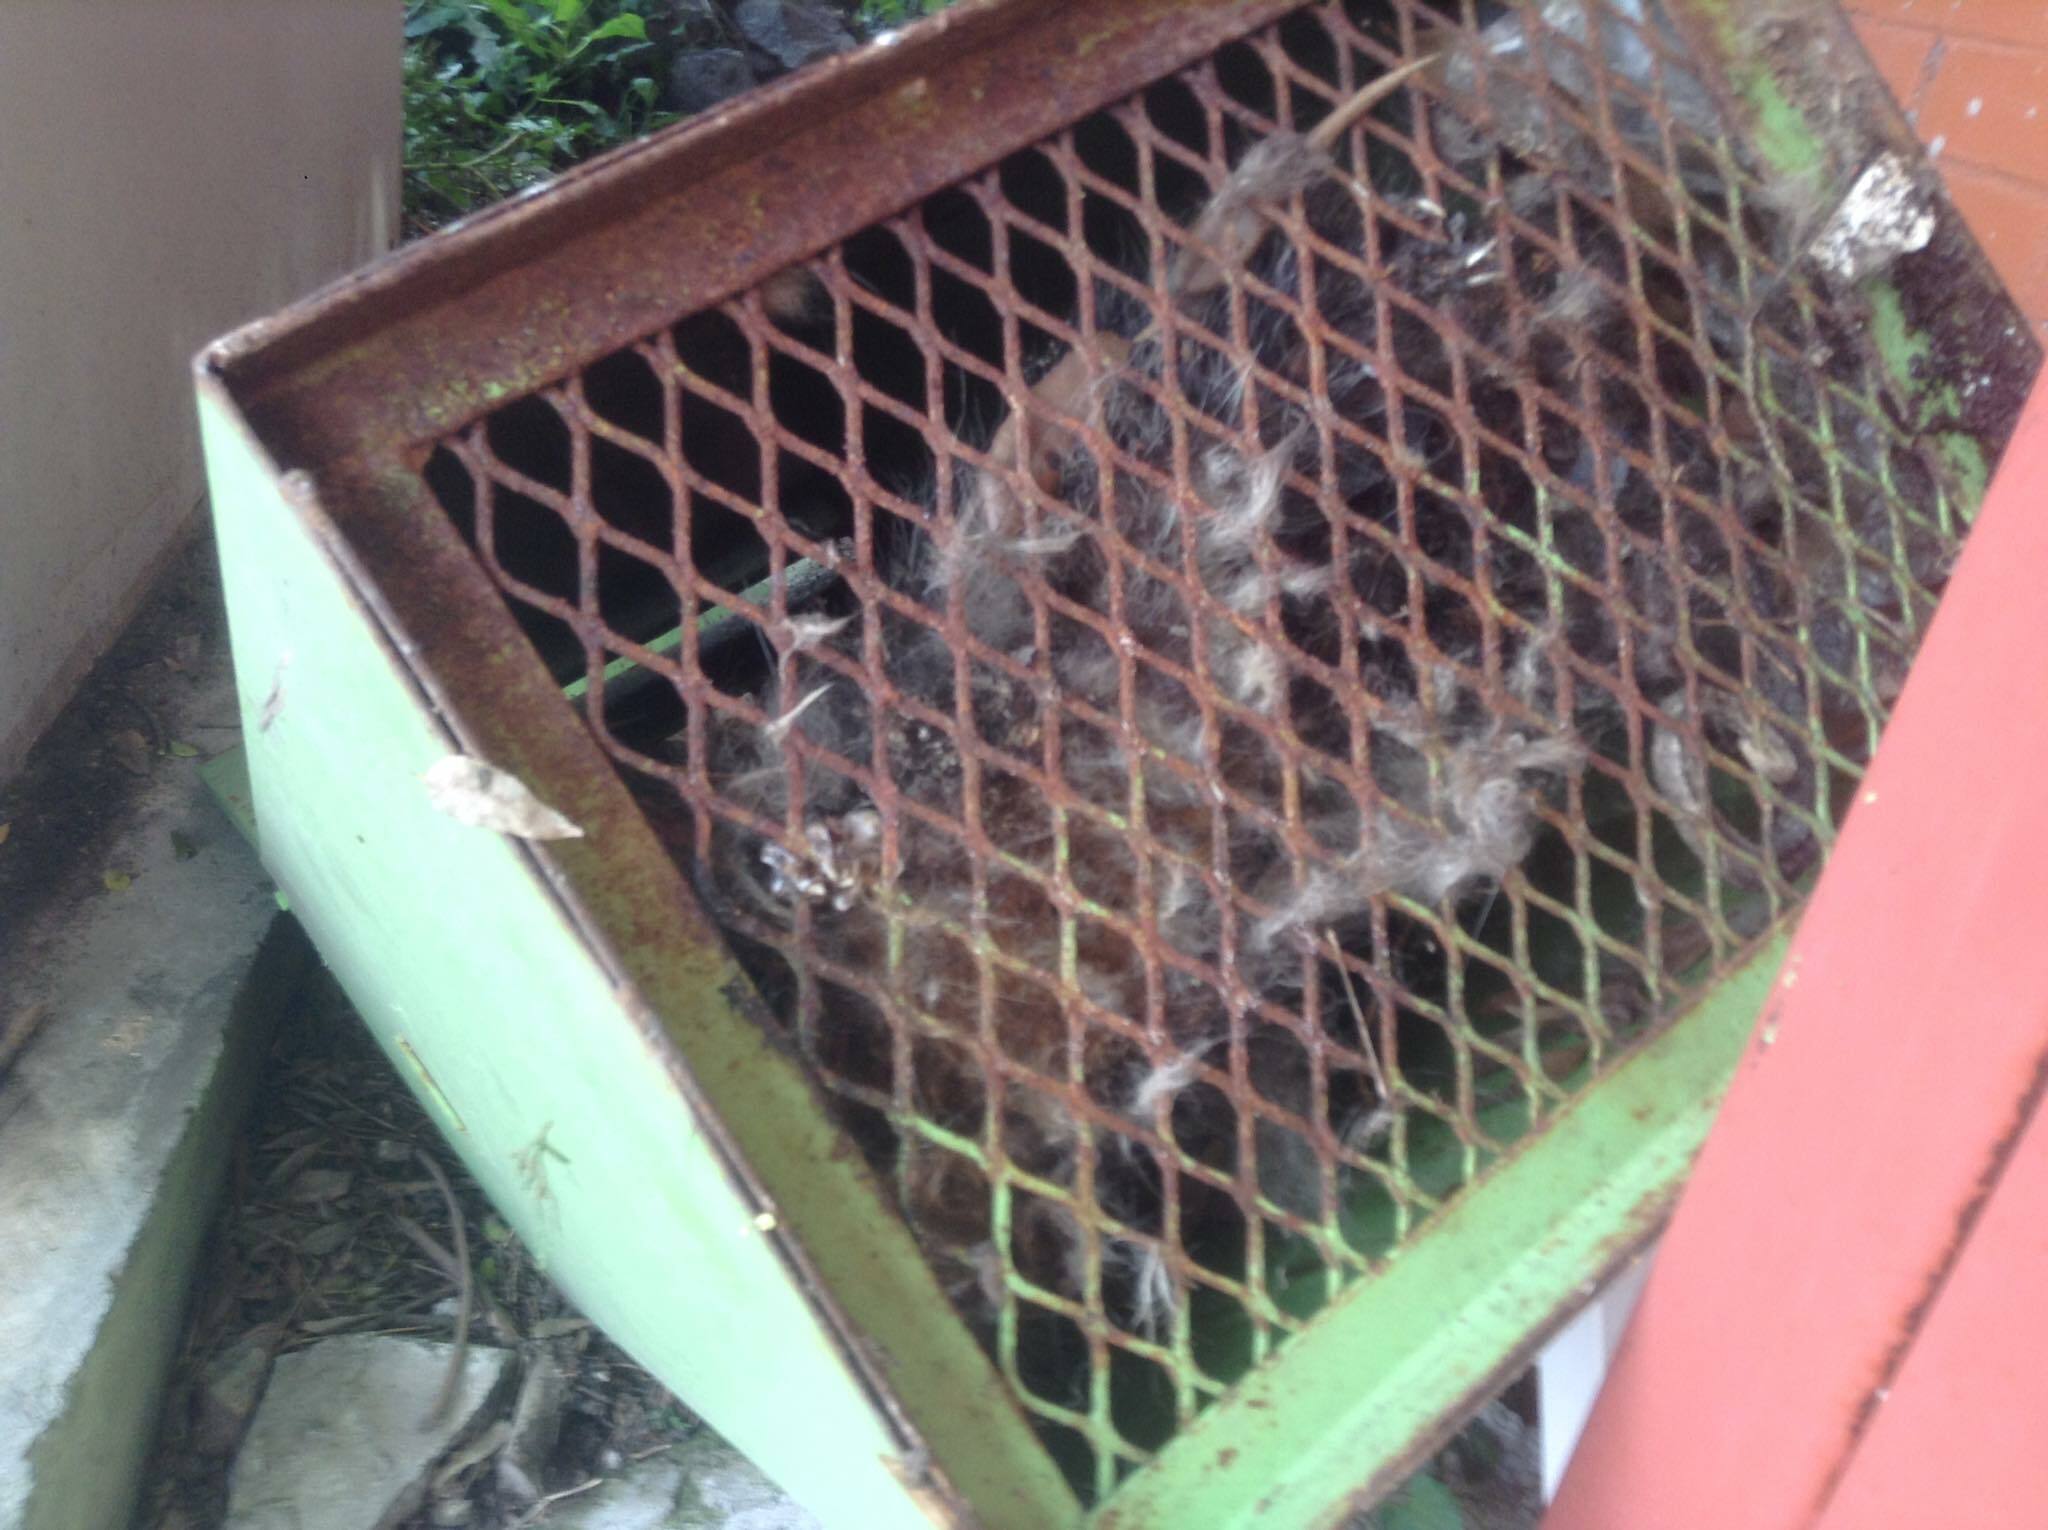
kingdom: Animalia
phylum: Chordata
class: Mammalia
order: Didelphimorphia
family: Didelphidae
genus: Didelphis
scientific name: Didelphis virginiana
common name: Virginia opossum
